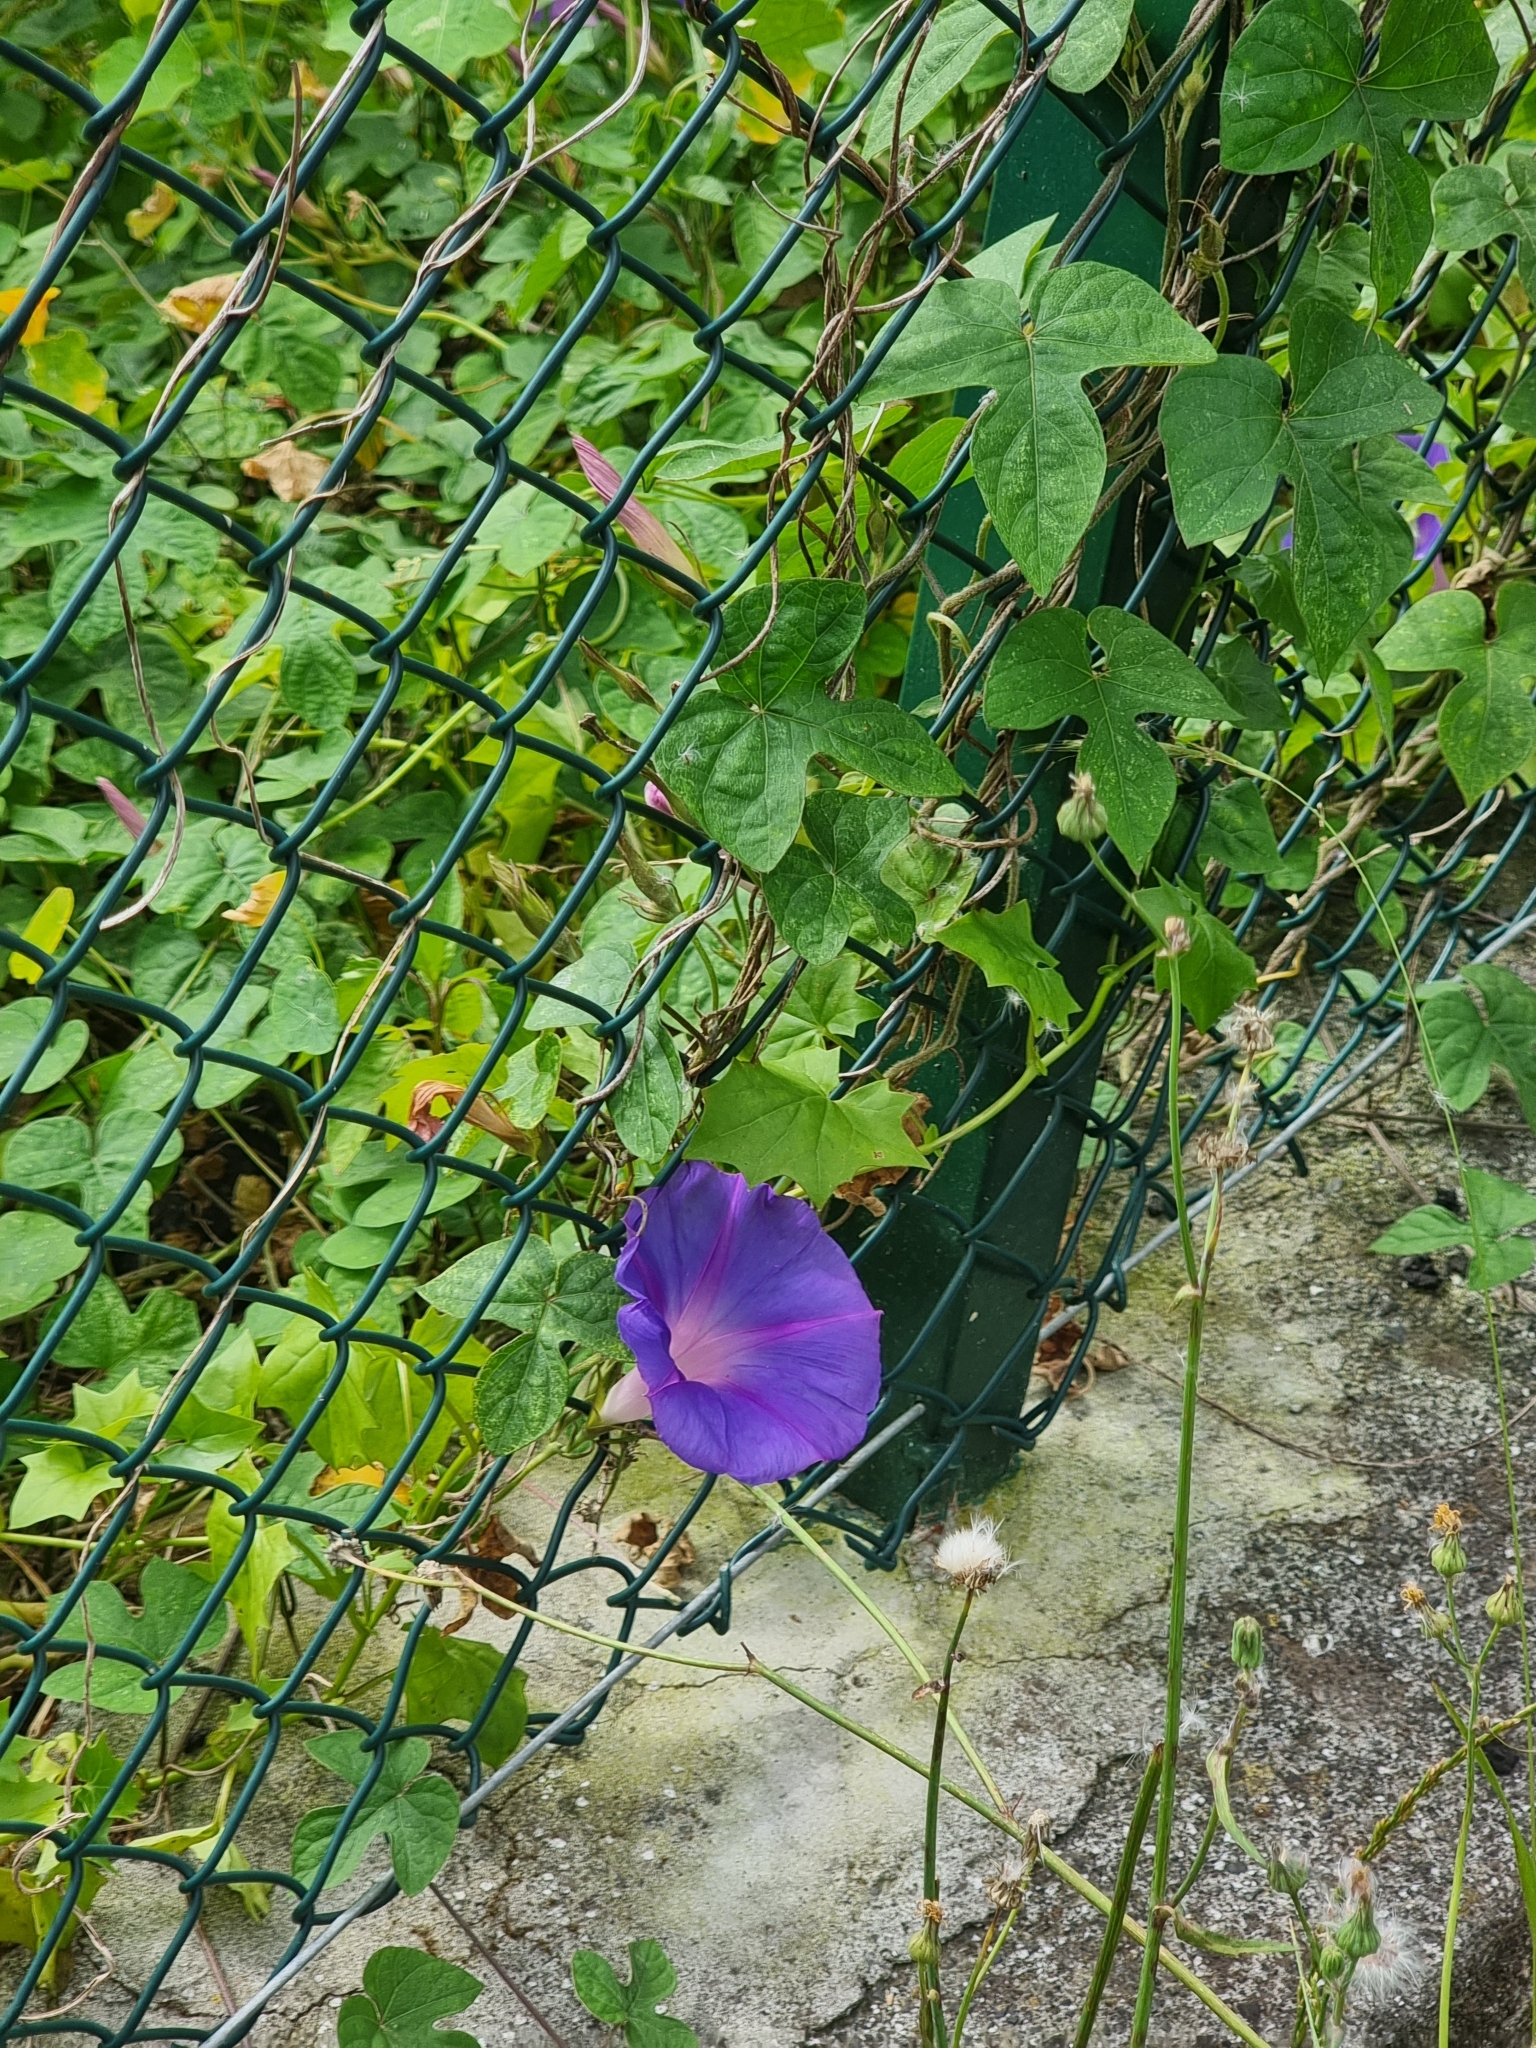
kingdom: Plantae
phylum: Tracheophyta
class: Magnoliopsida
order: Solanales
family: Convolvulaceae
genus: Ipomoea
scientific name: Ipomoea indica
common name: Blue dawnflower
